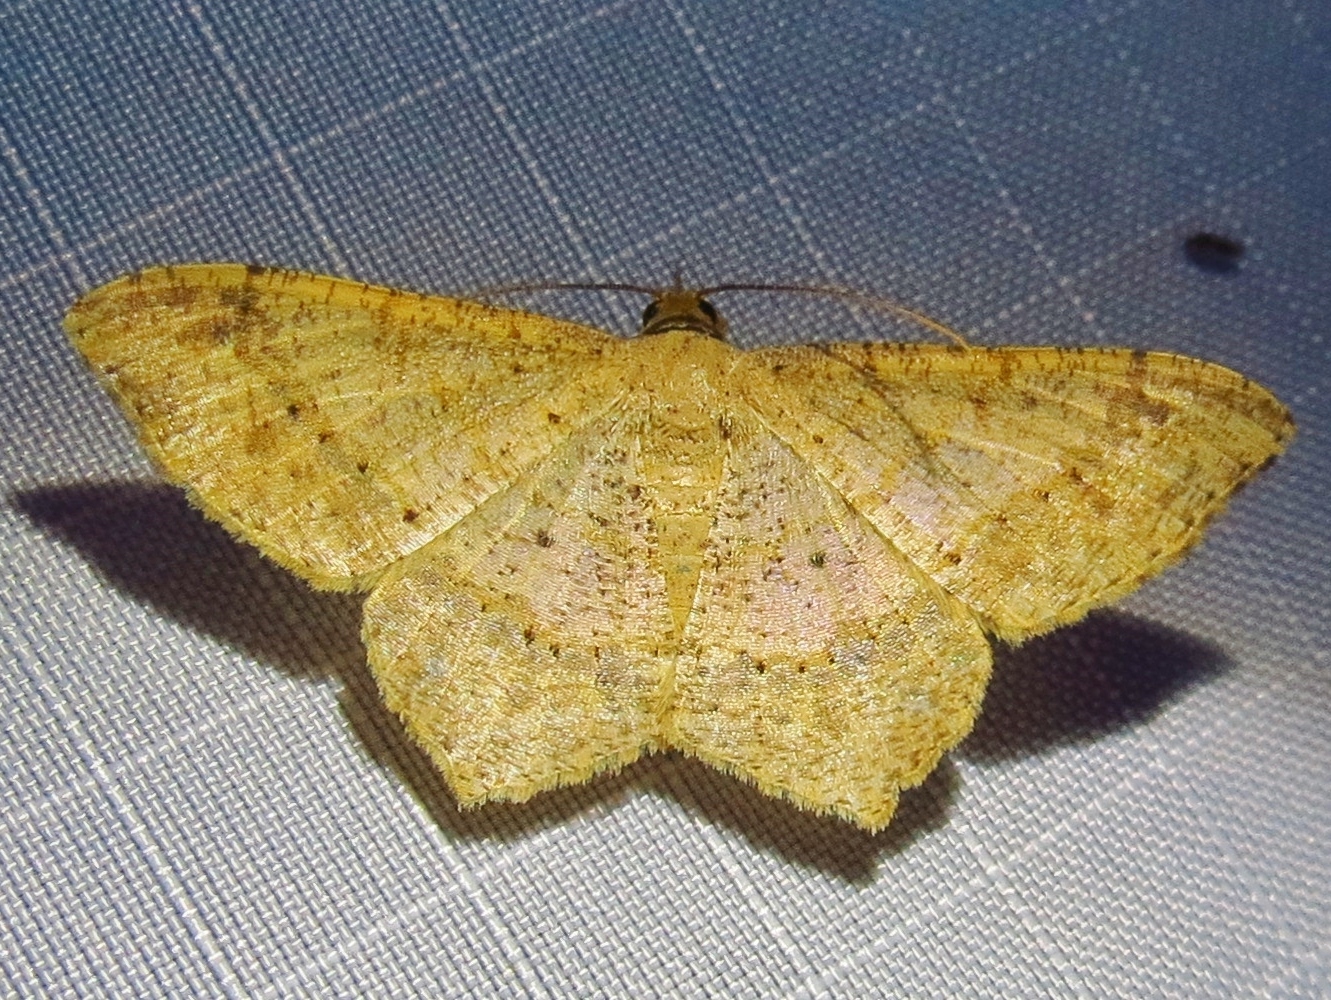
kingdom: Animalia
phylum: Arthropoda
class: Insecta
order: Lepidoptera
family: Geometridae
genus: Macaria
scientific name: Macaria abydata
